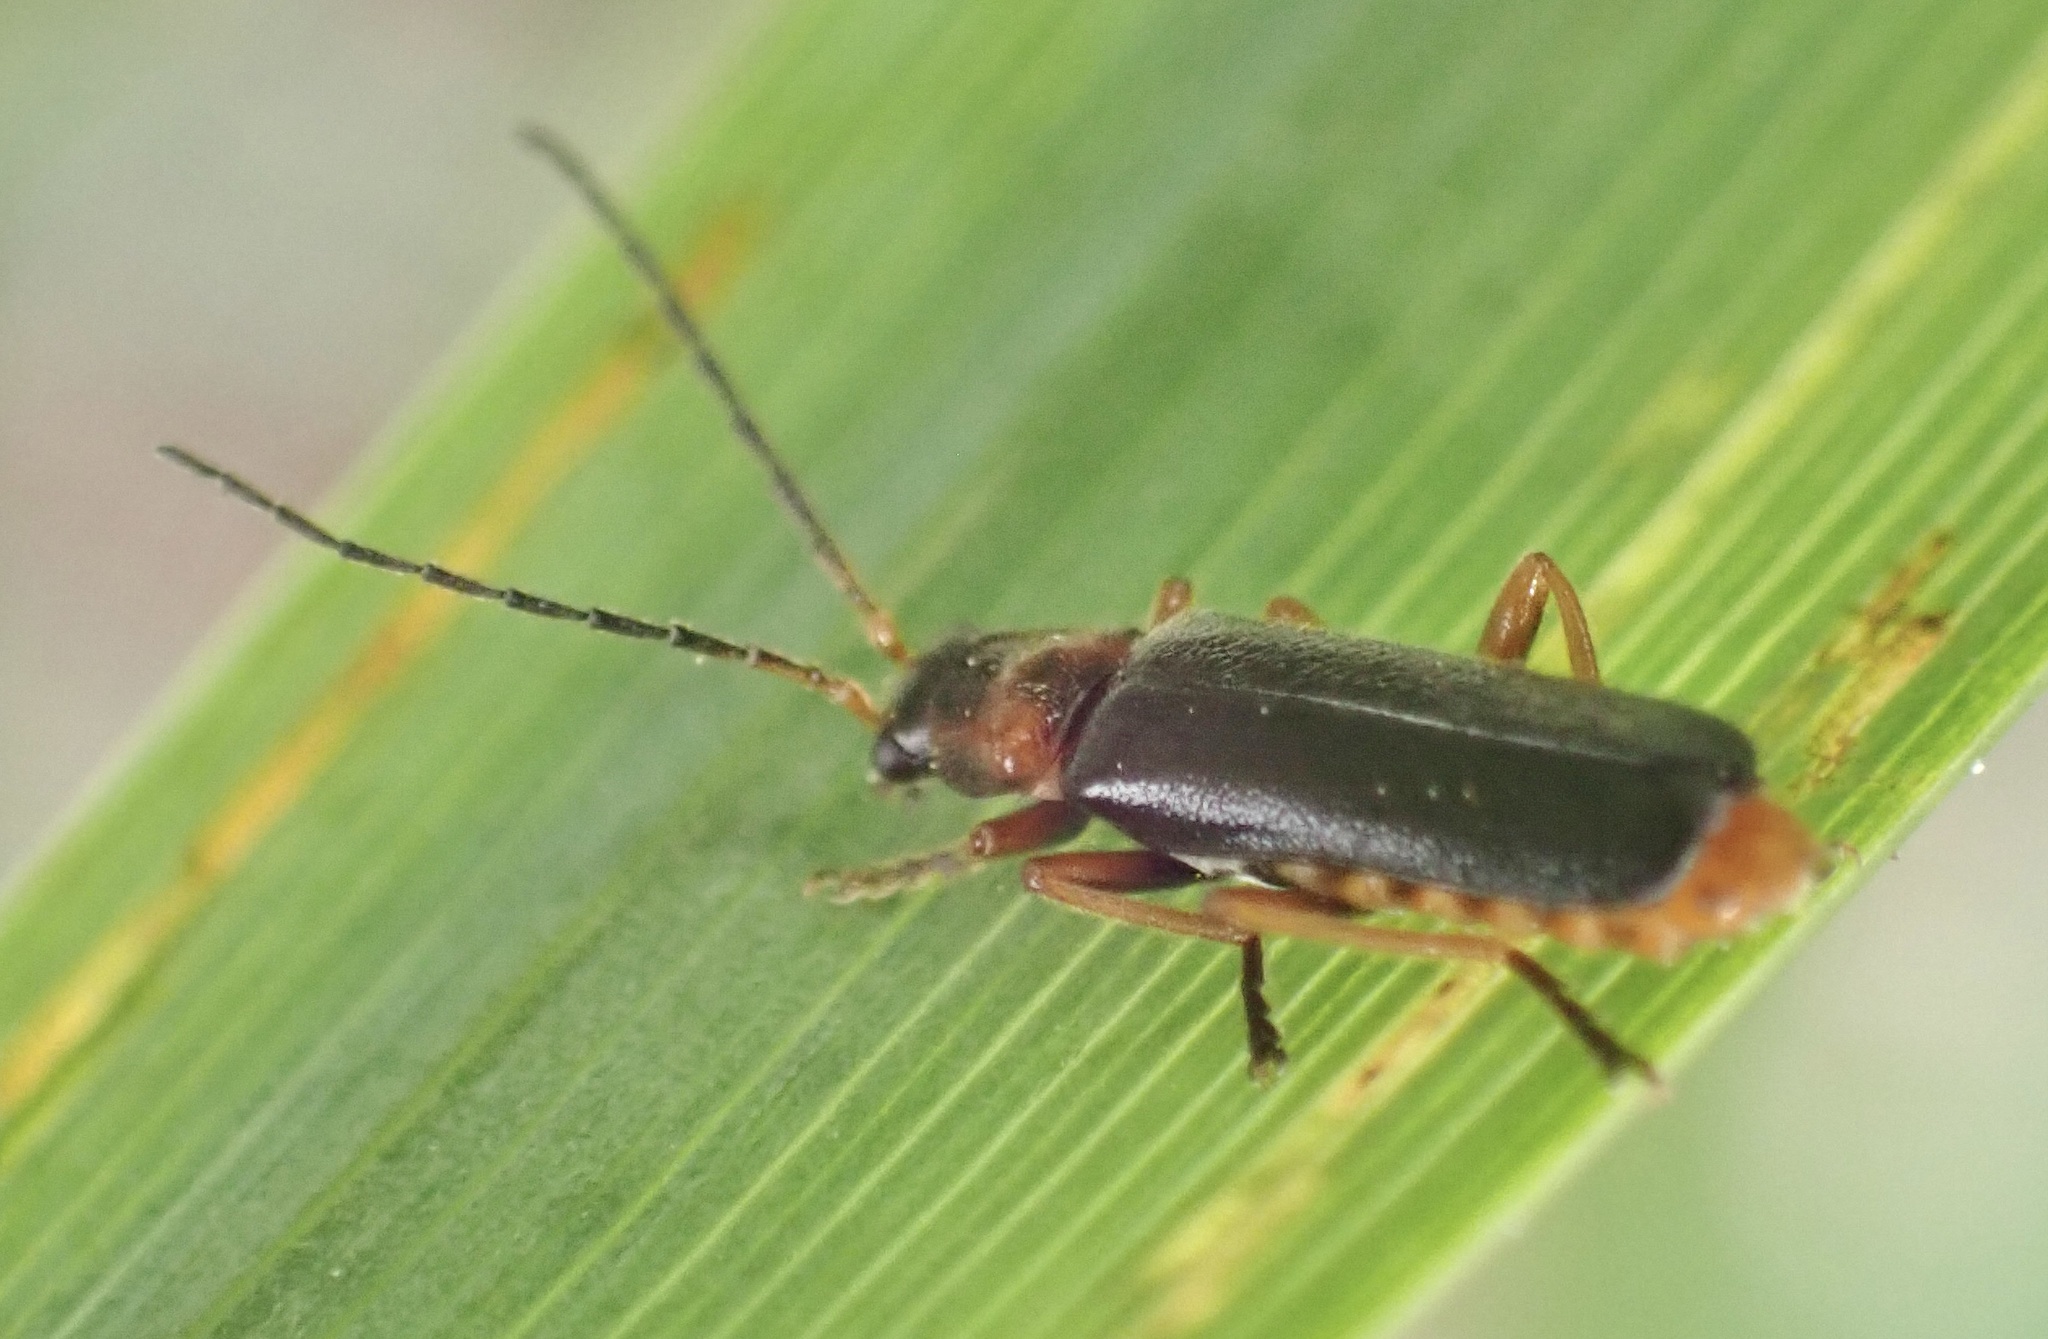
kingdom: Animalia
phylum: Arthropoda
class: Insecta
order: Coleoptera
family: Cantharidae
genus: Cantharis
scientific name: Cantharis flavilabris
